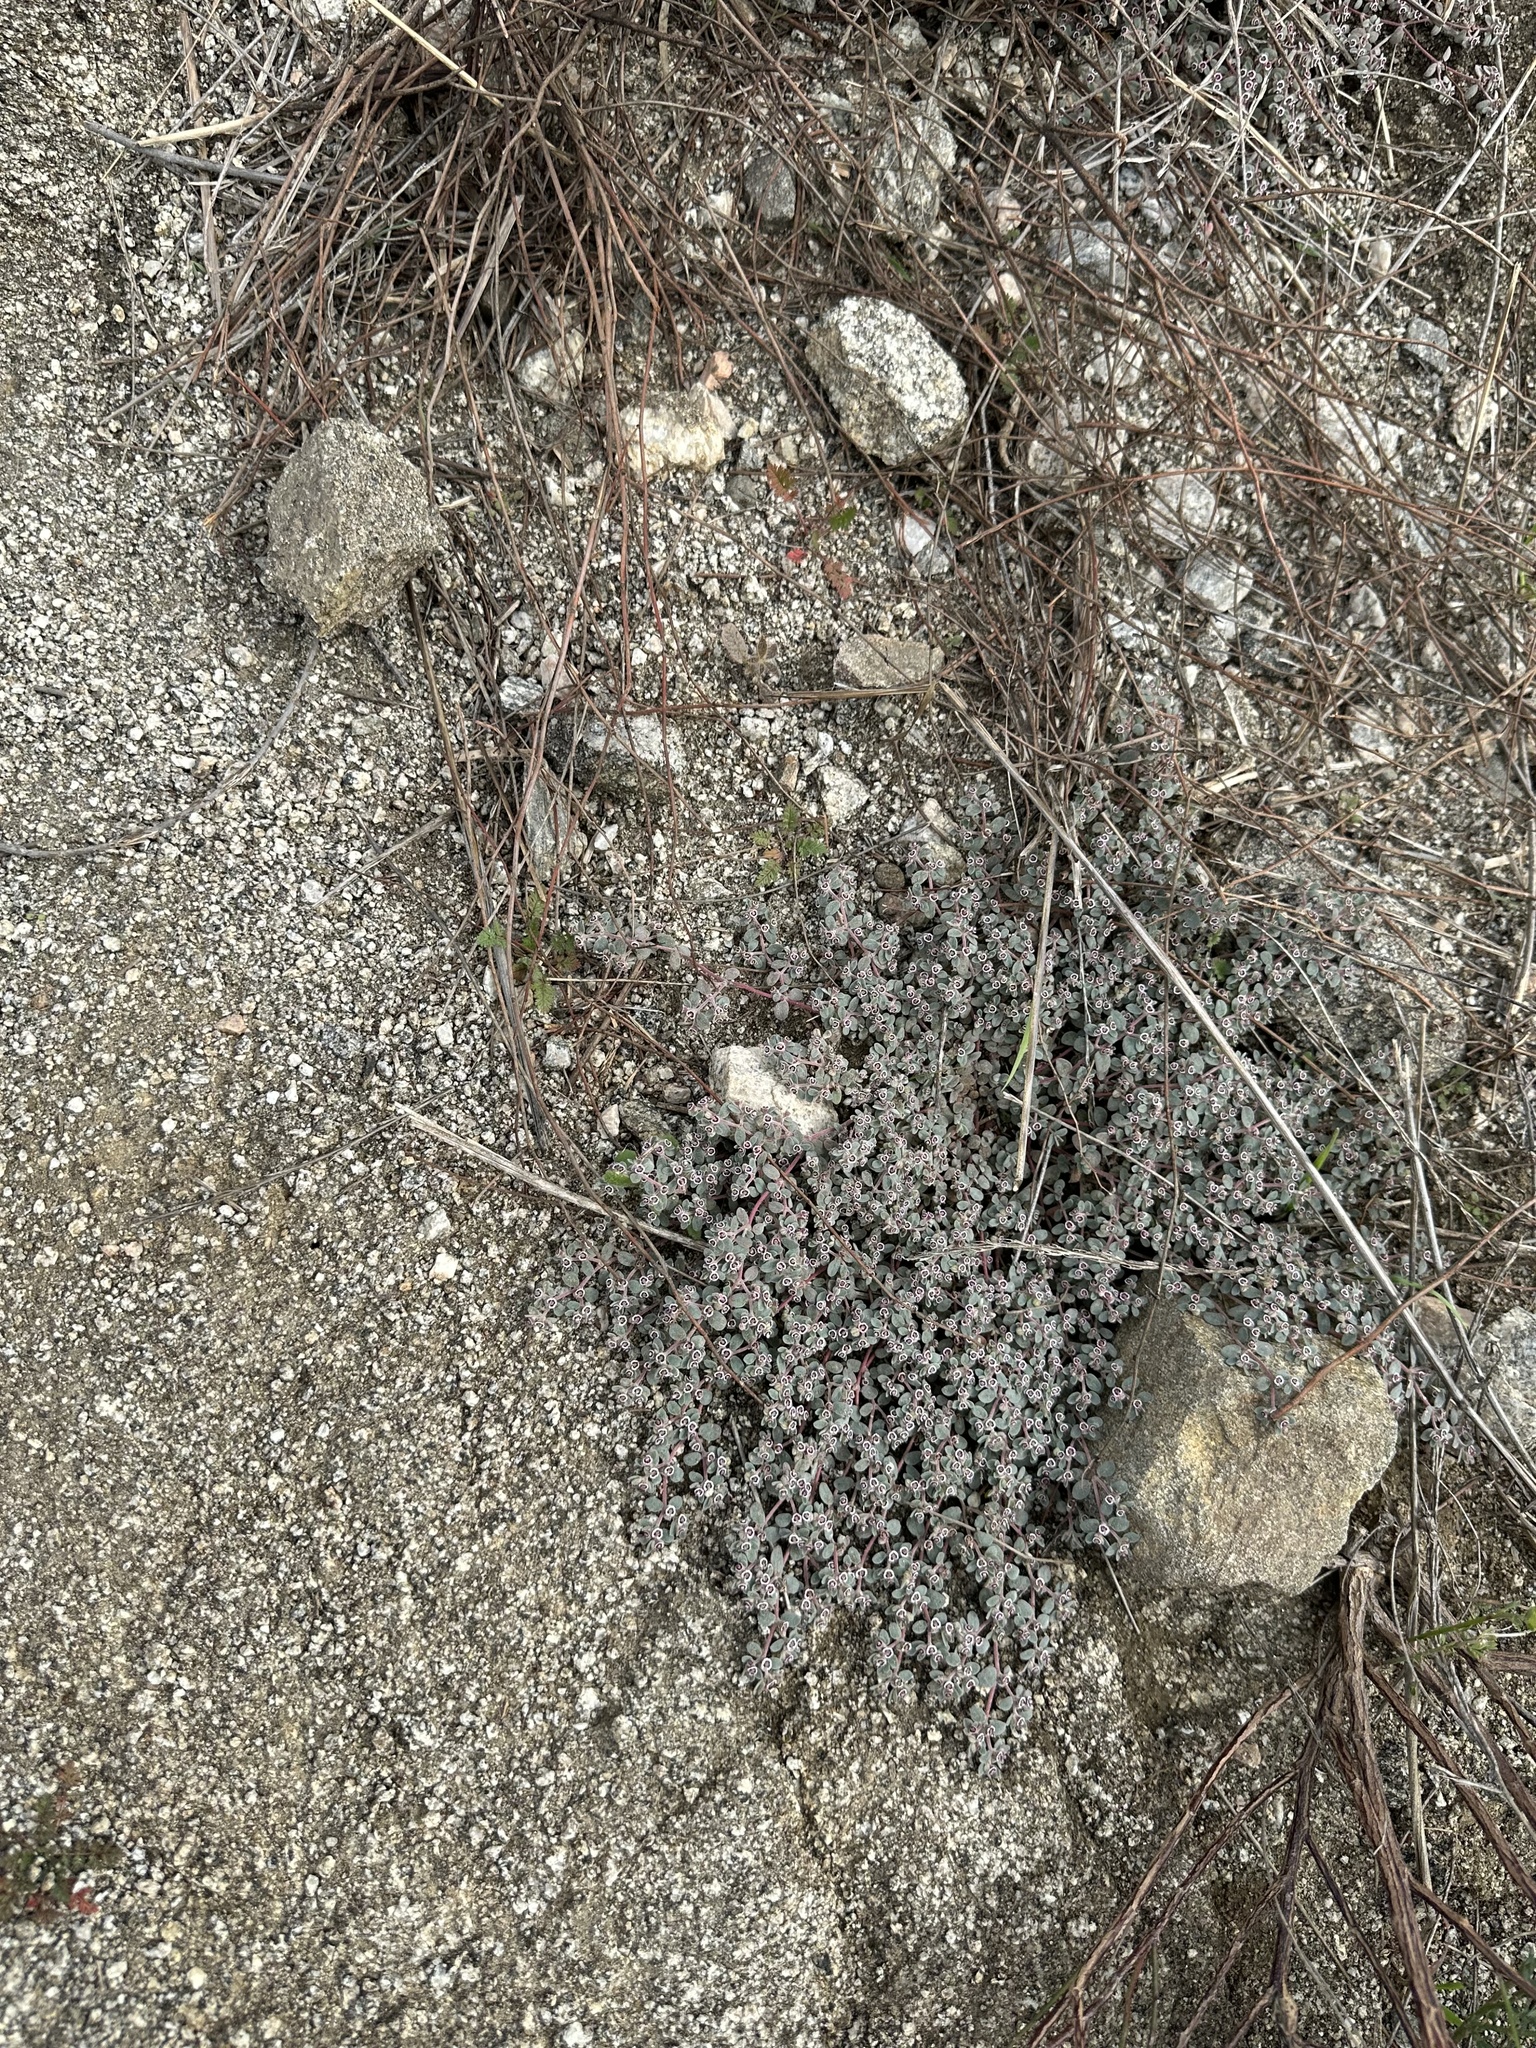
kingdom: Plantae
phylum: Tracheophyta
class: Magnoliopsida
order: Malpighiales
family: Euphorbiaceae
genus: Euphorbia
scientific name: Euphorbia melanadenia
